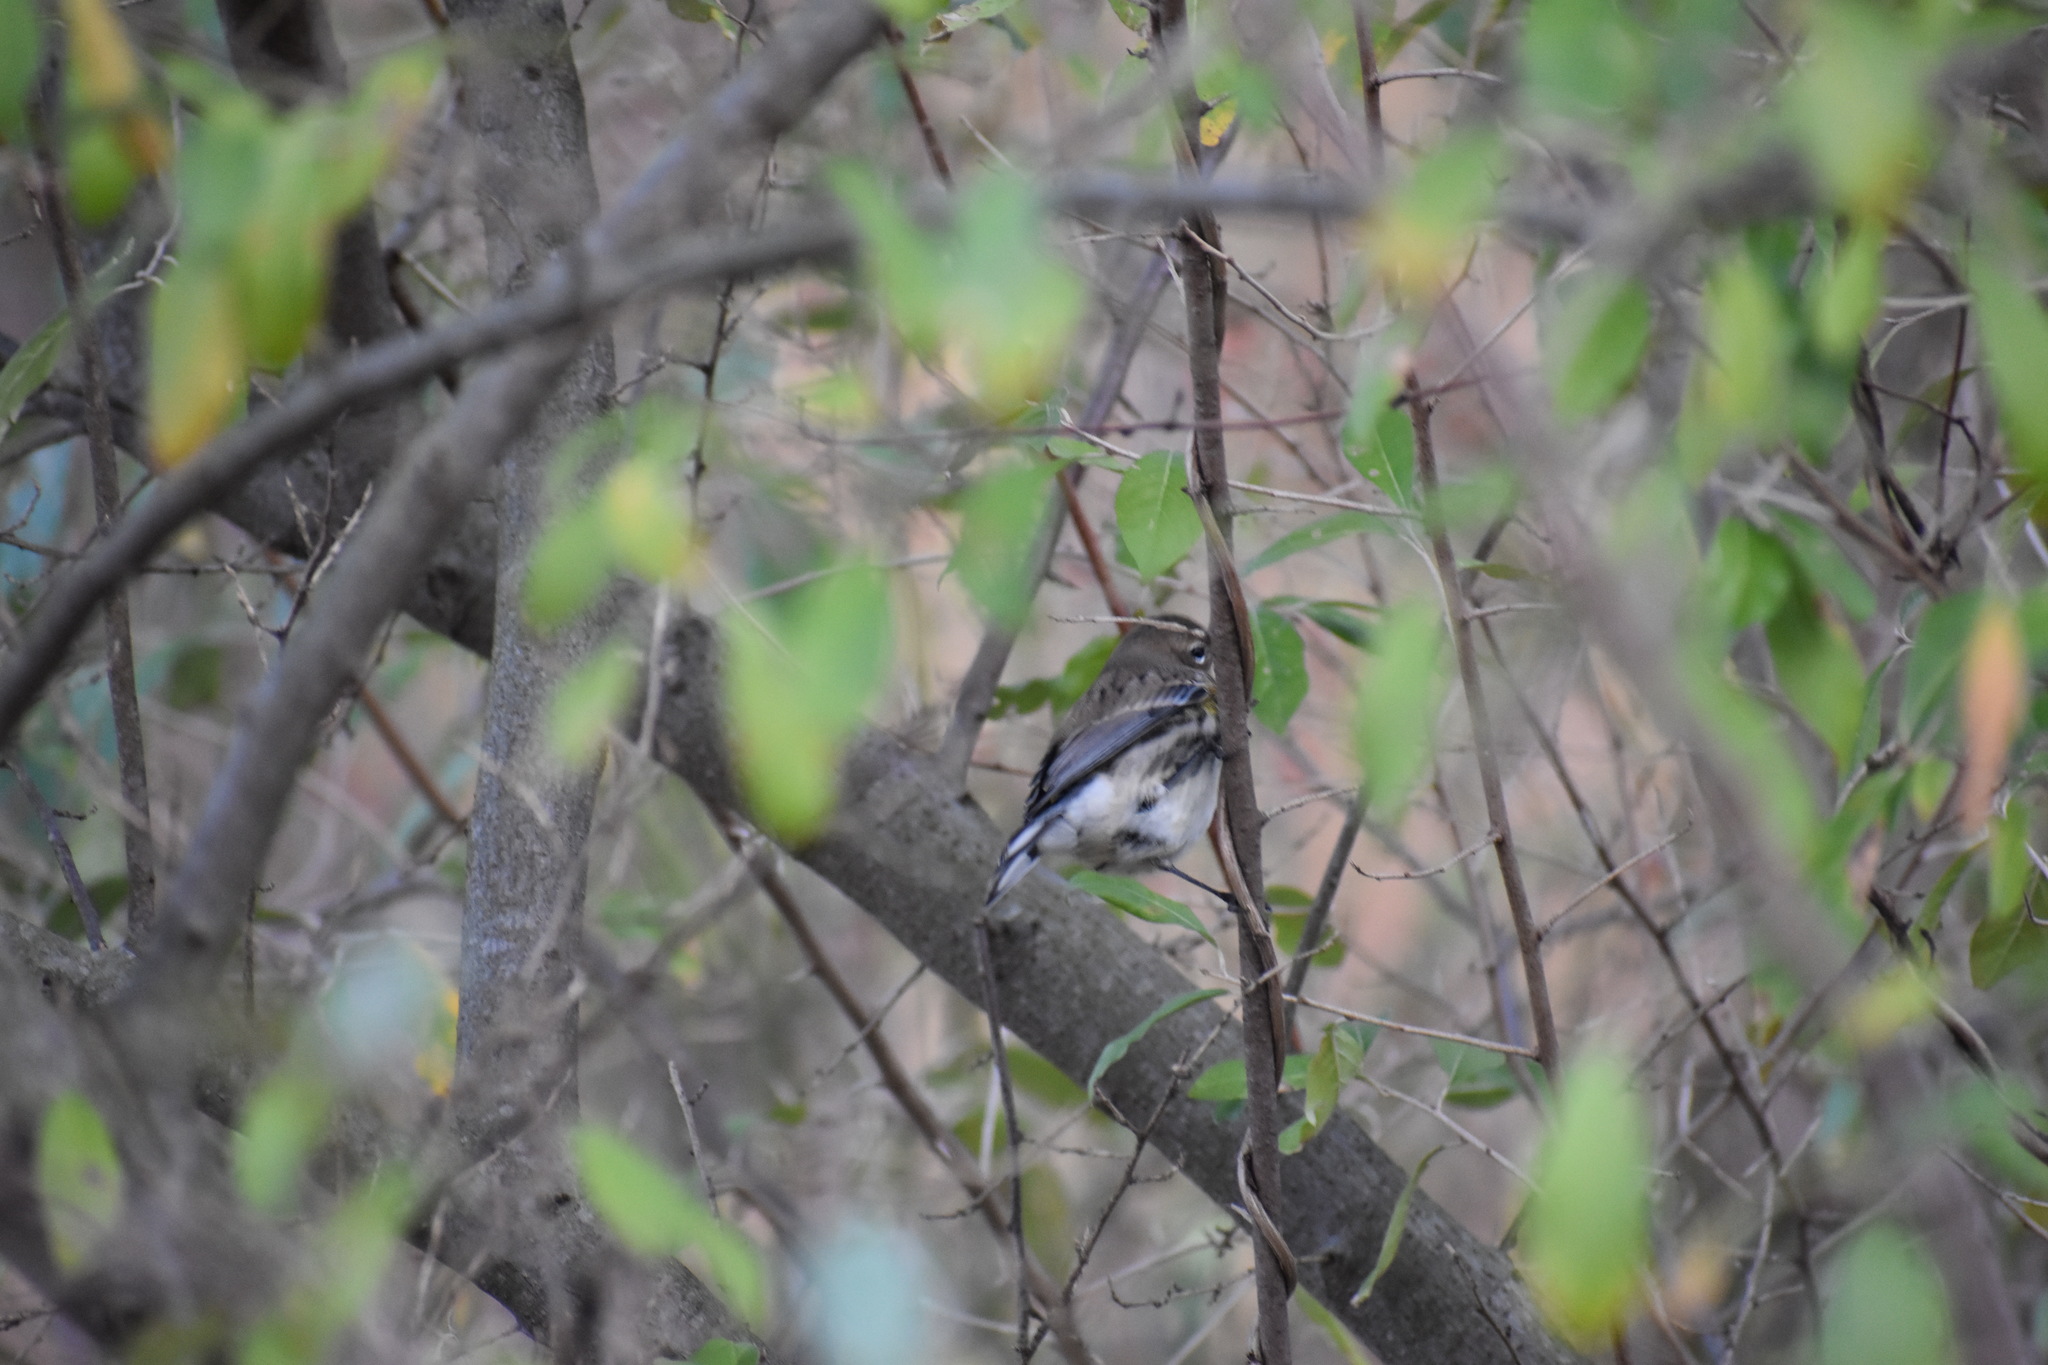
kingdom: Animalia
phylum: Chordata
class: Aves
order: Passeriformes
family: Parulidae
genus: Setophaga
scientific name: Setophaga coronata
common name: Myrtle warbler
